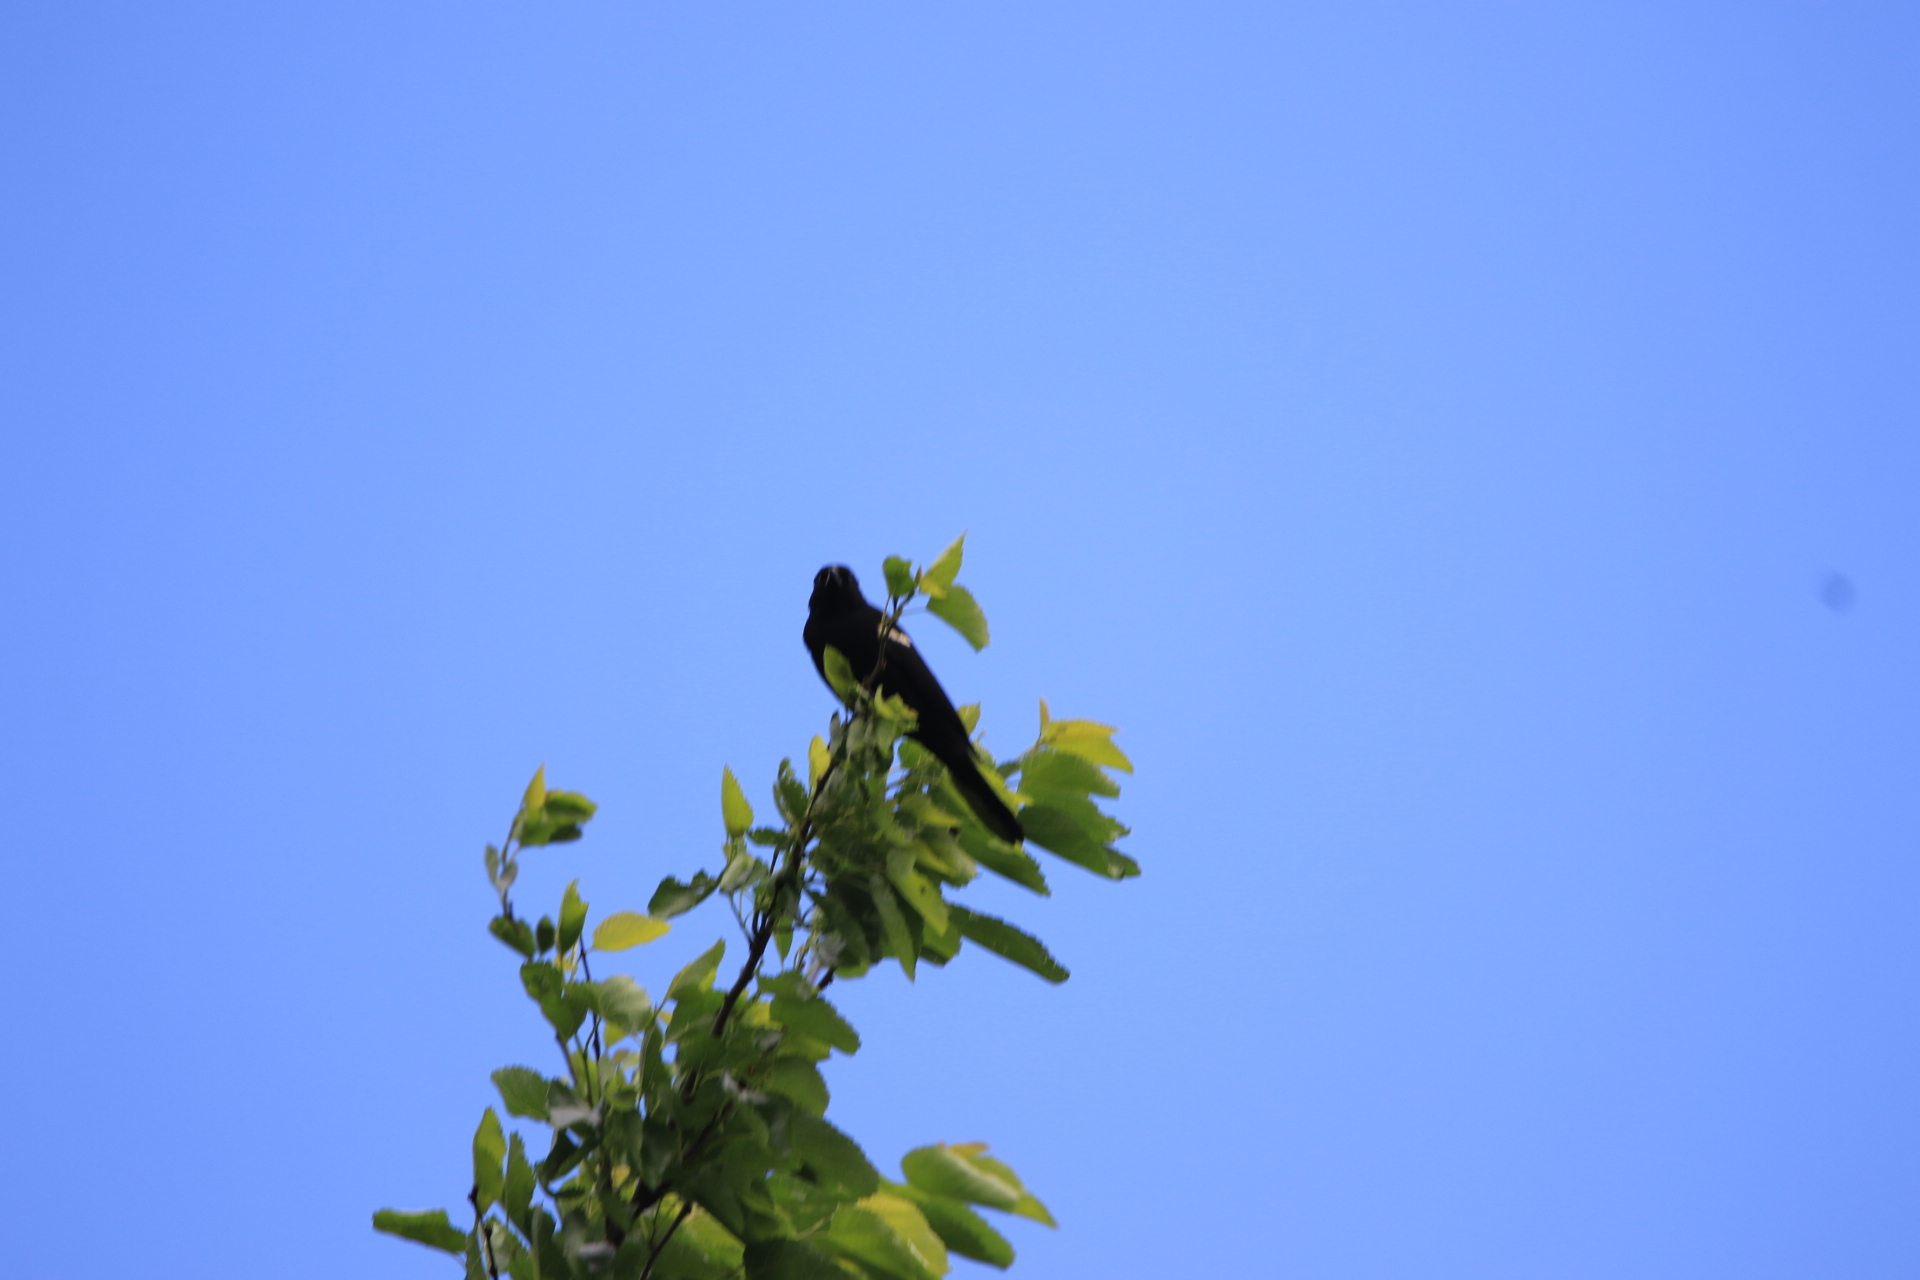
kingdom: Animalia
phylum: Chordata
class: Aves
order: Passeriformes
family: Icteridae
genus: Agelaius
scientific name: Agelaius phoeniceus
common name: Red-winged blackbird
